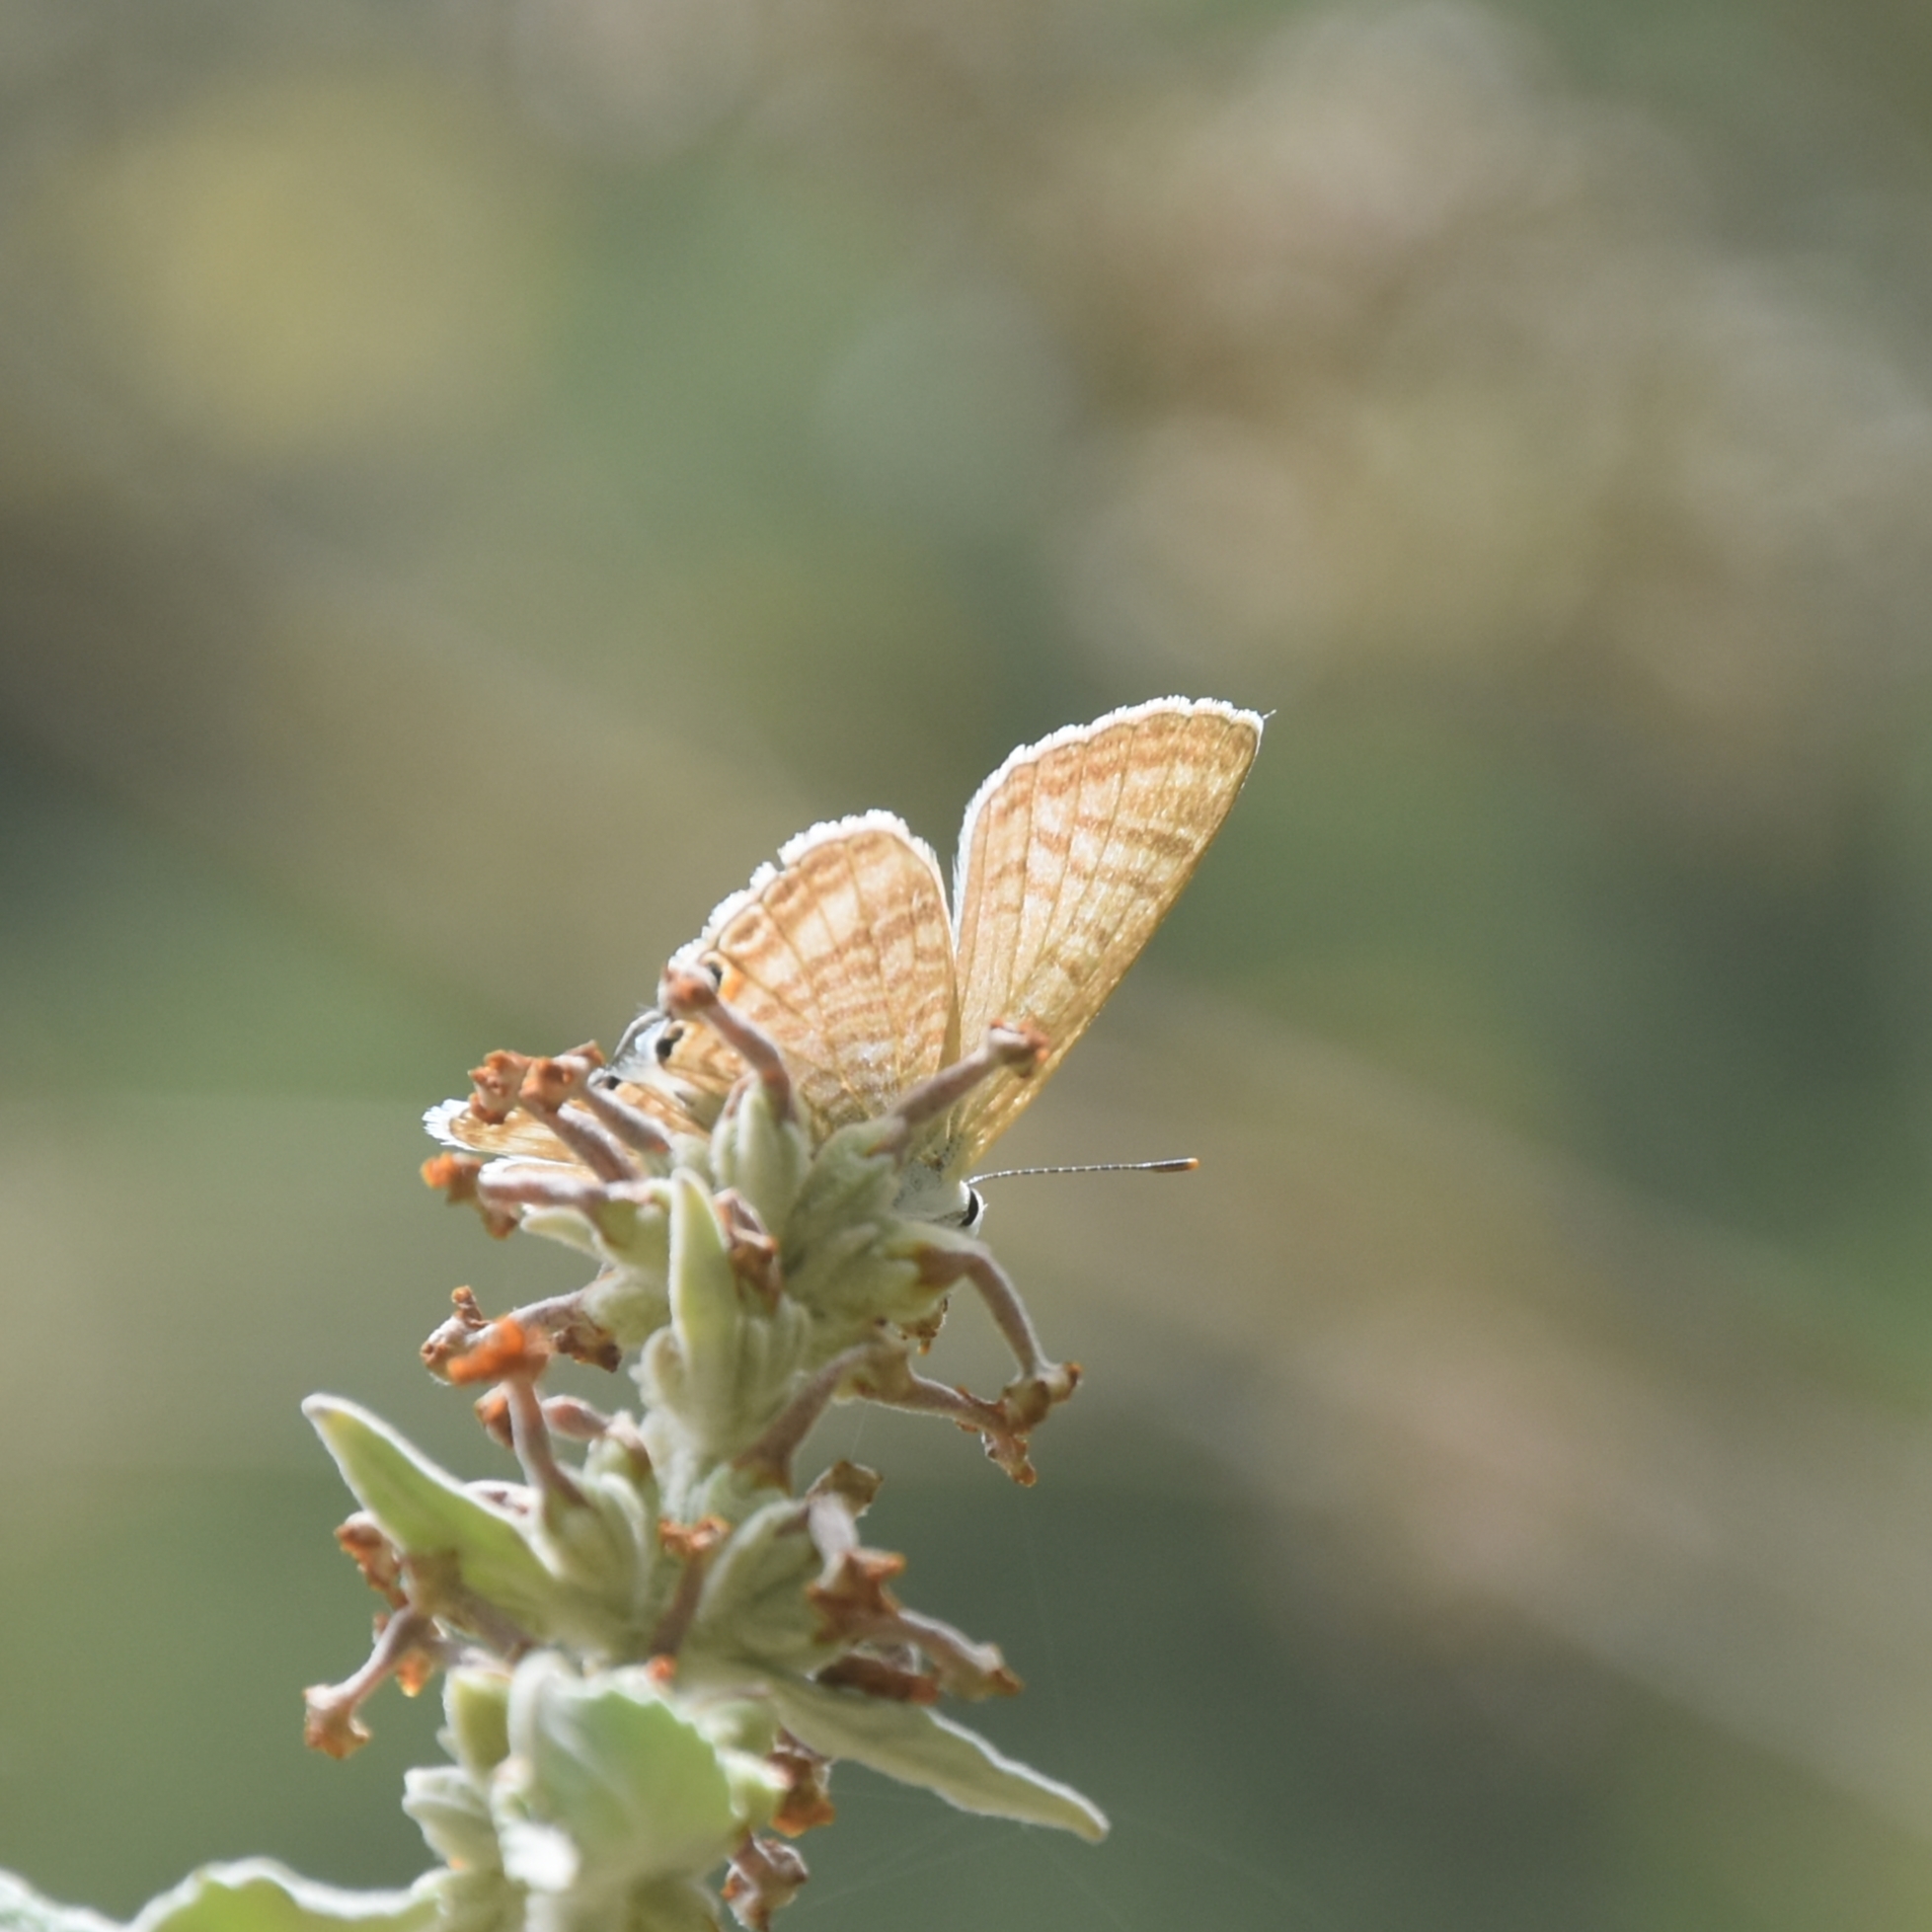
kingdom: Animalia
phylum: Arthropoda
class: Insecta
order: Lepidoptera
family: Lycaenidae
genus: Lampides
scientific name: Lampides boeticus
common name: Long-tailed blue
